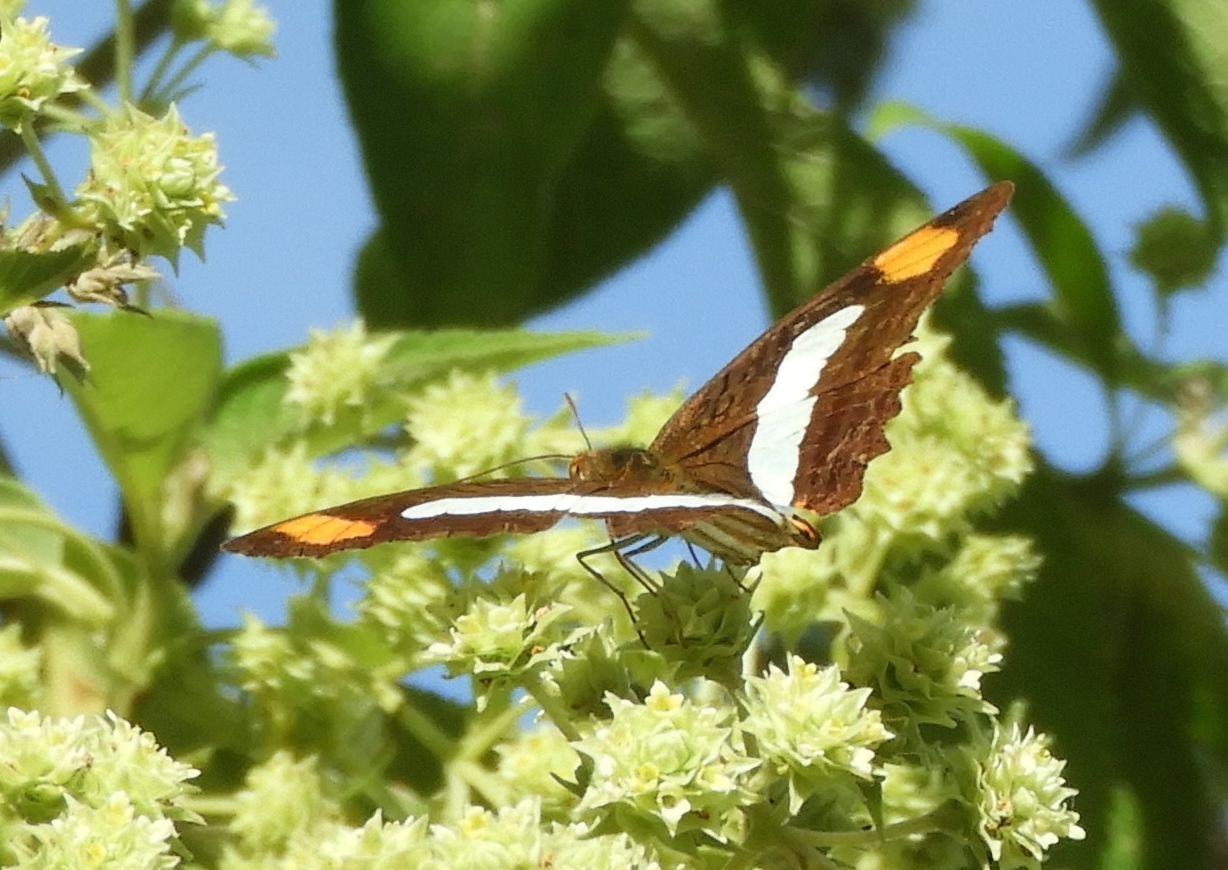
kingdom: Animalia
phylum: Arthropoda
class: Insecta
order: Lepidoptera
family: Nymphalidae
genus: Limenitis
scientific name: Limenitis iphiclus
